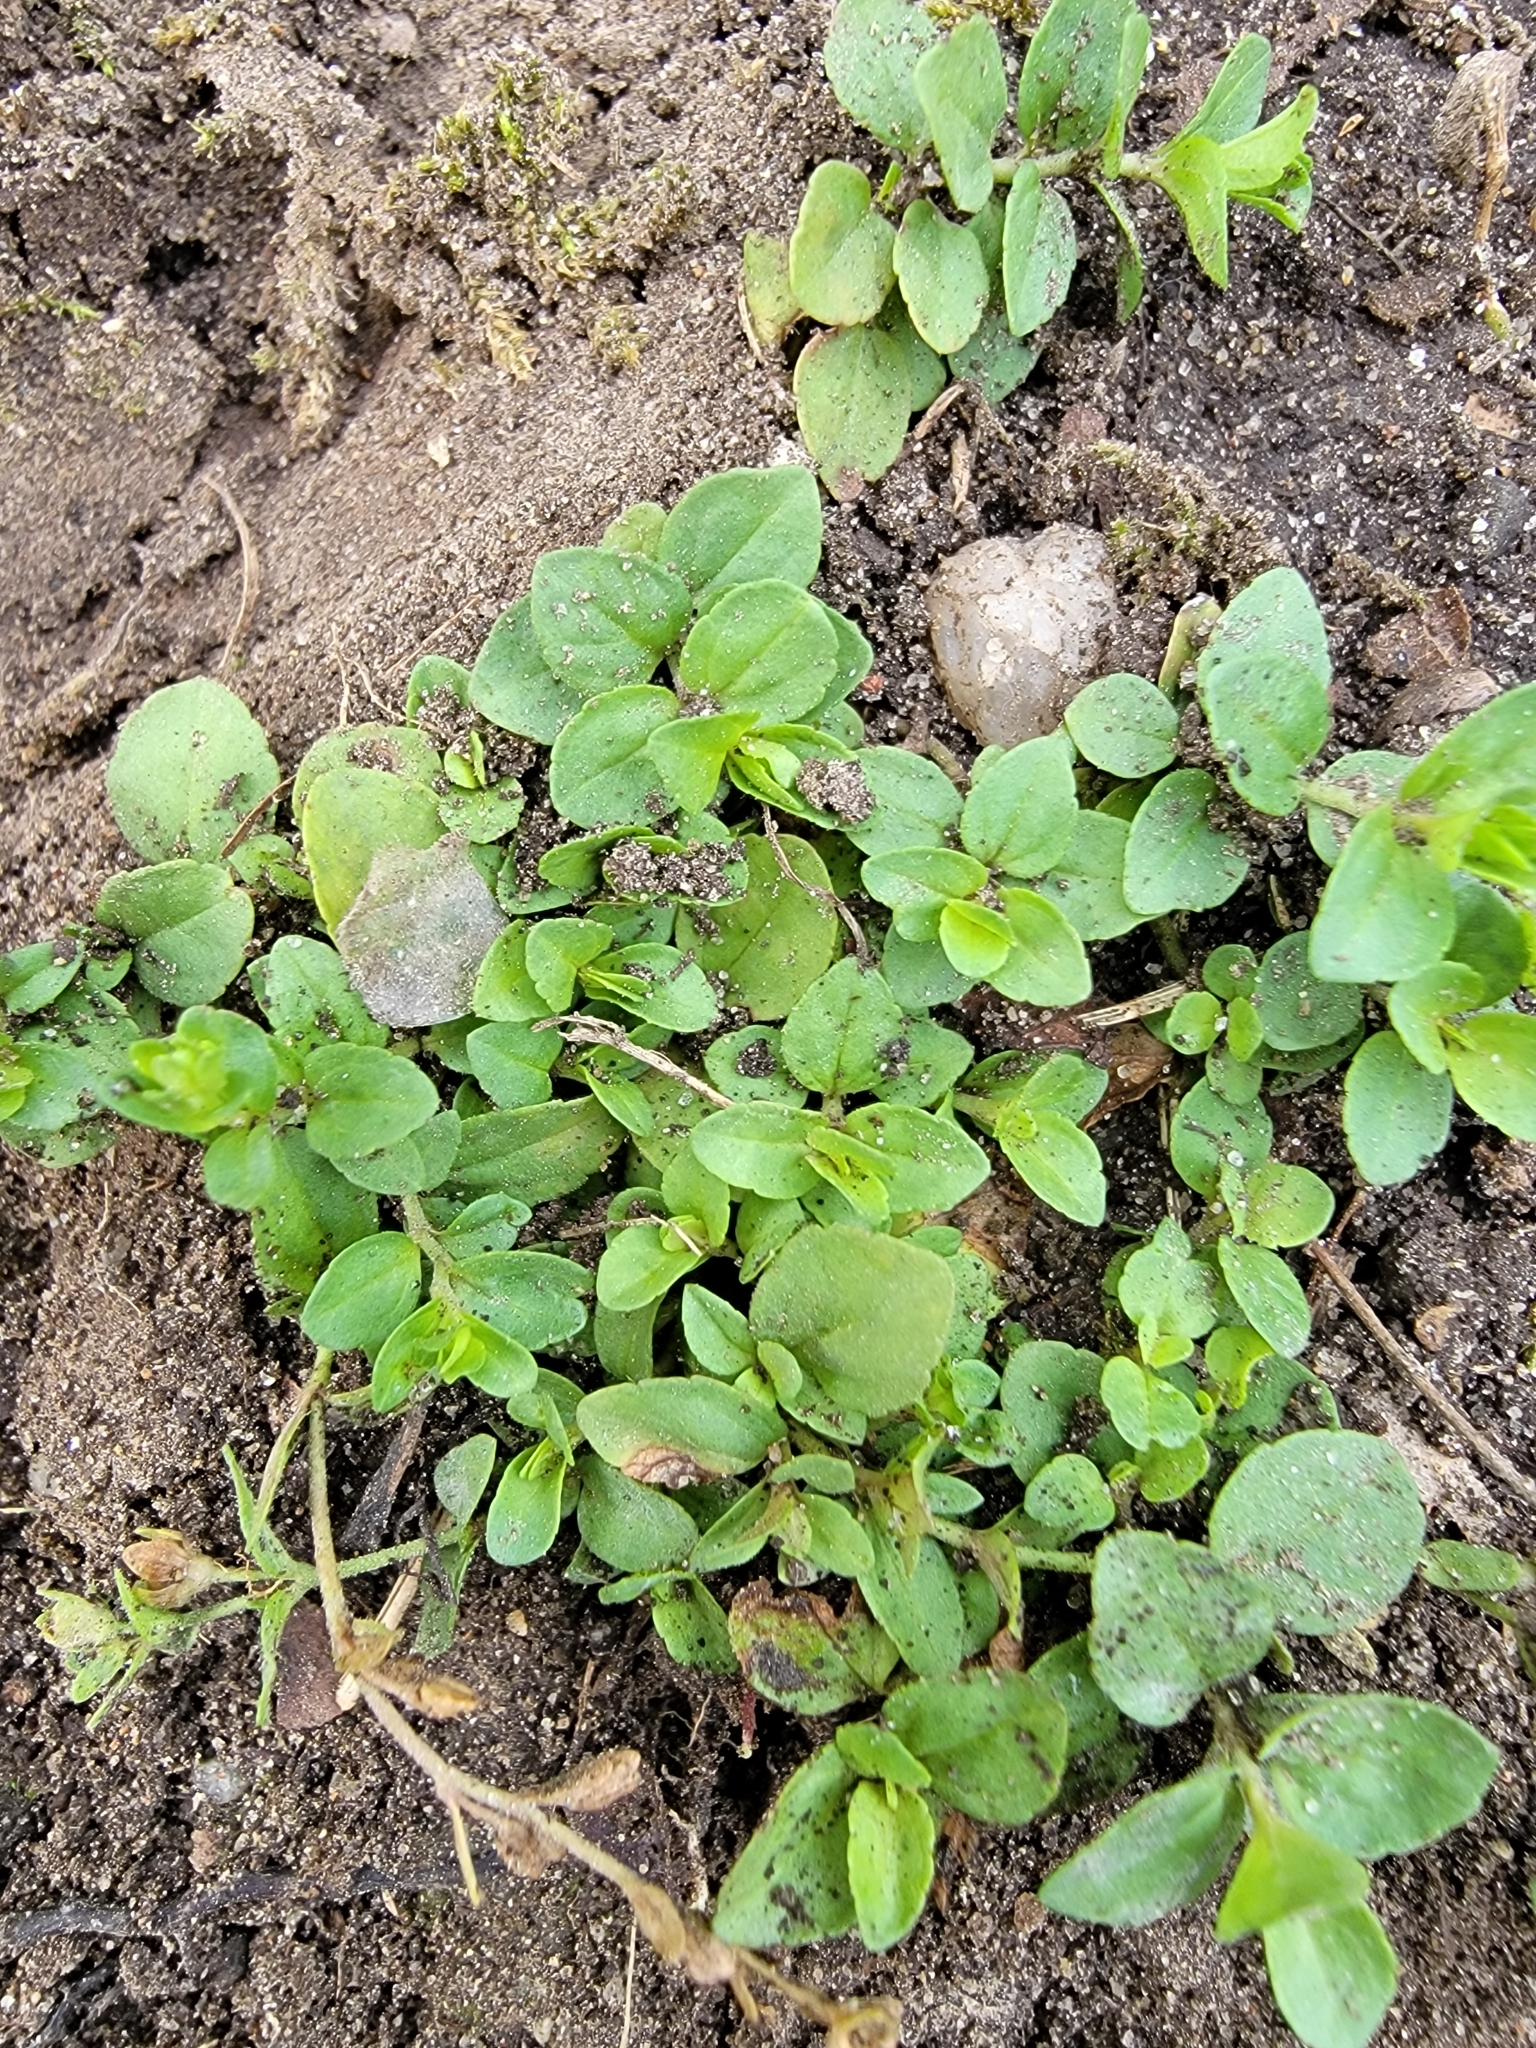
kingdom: Plantae
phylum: Tracheophyta
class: Magnoliopsida
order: Lamiales
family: Plantaginaceae
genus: Veronica
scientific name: Veronica serpyllifolia
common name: Thyme-leaved speedwell
